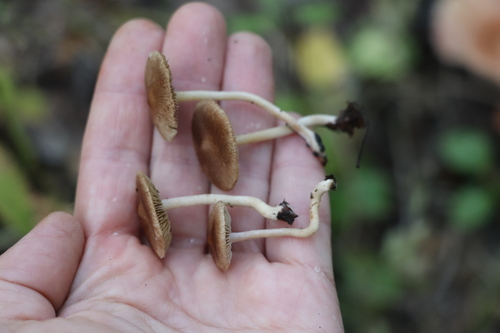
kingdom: Fungi
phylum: Basidiomycota
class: Agaricomycetes
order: Agaricales
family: Inocybaceae
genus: Inocybe
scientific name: Inocybe
